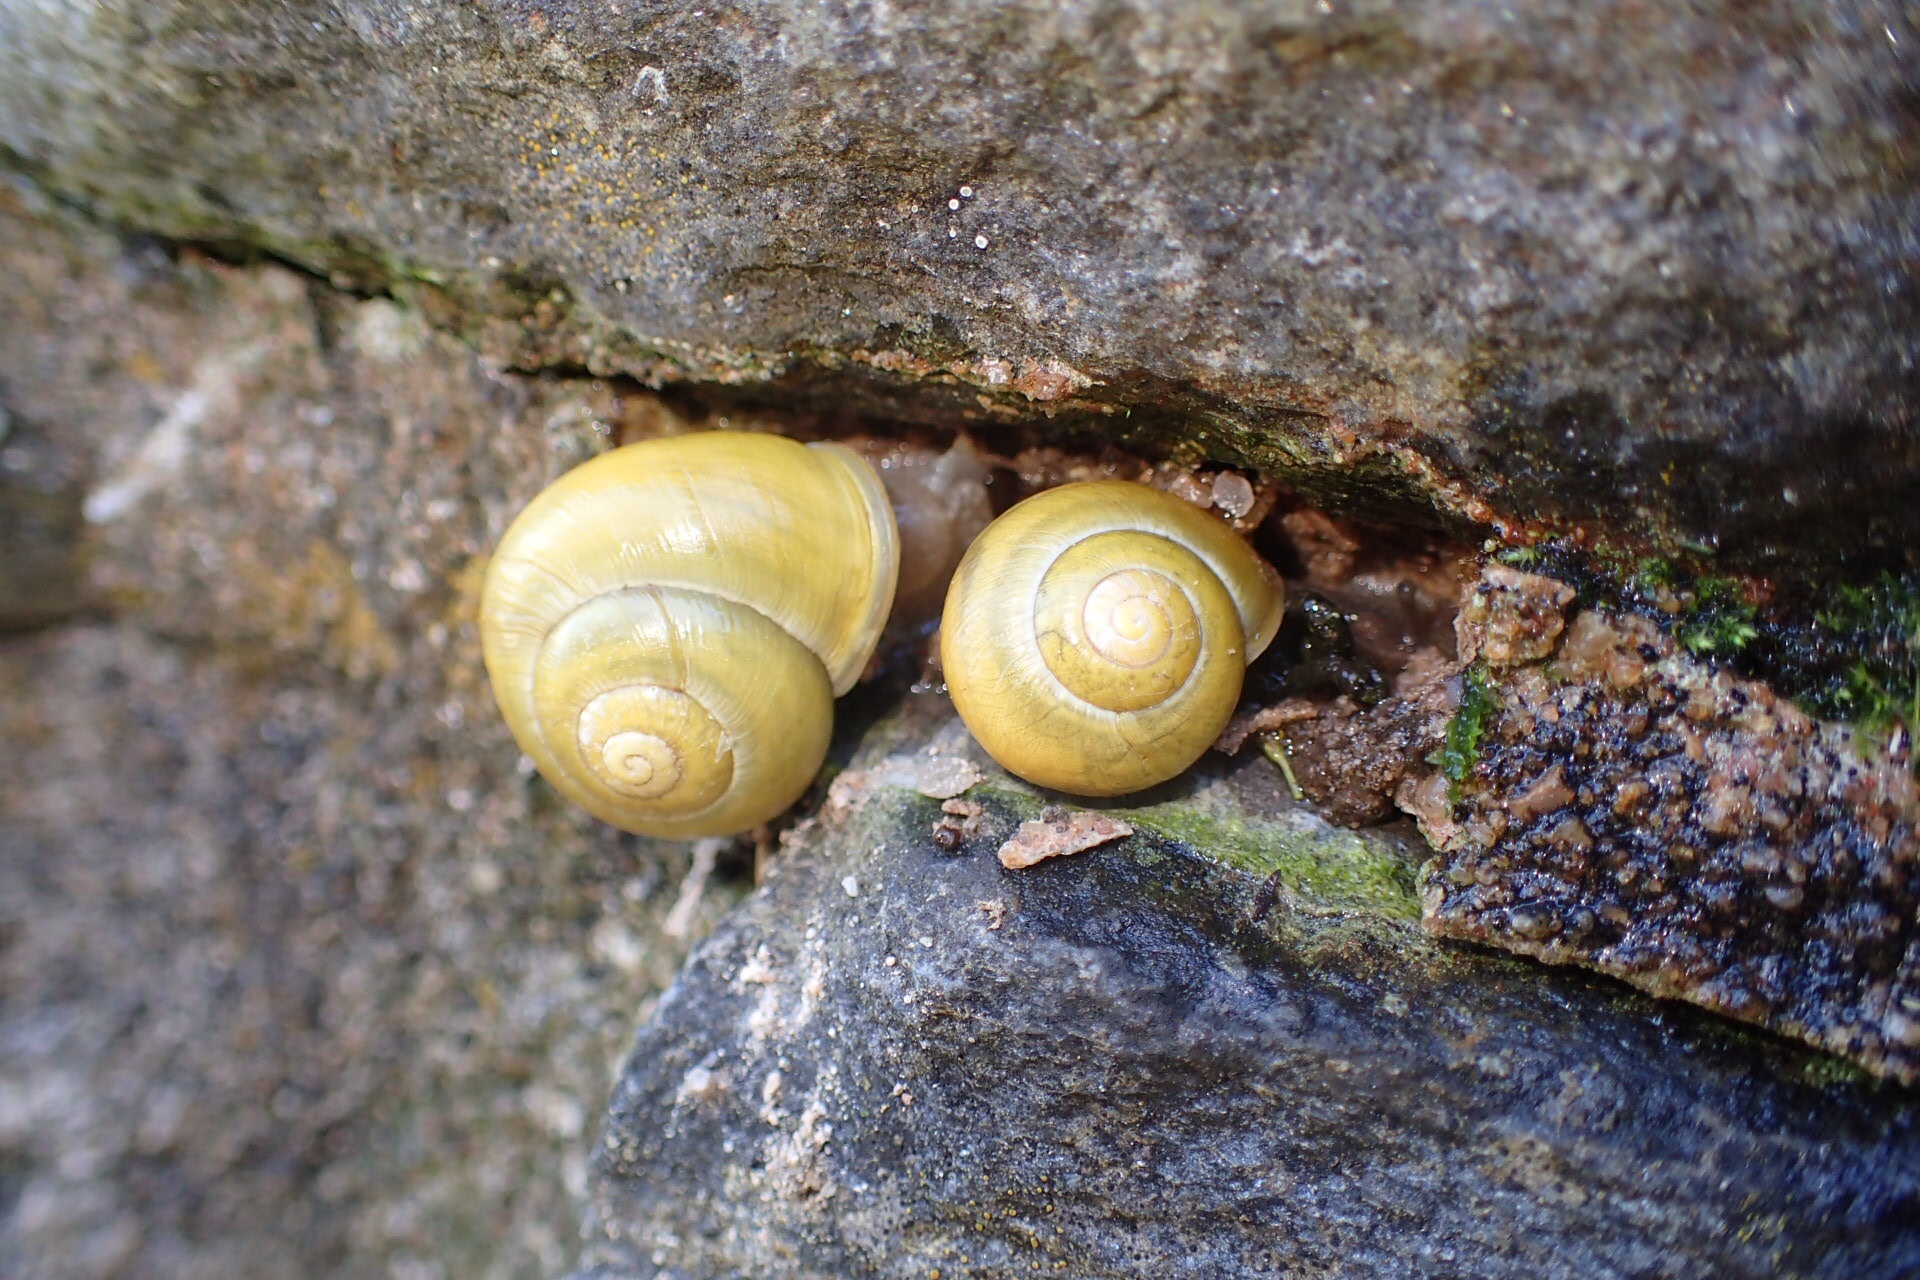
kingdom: Animalia
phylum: Mollusca
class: Gastropoda
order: Stylommatophora
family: Helicidae
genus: Cepaea
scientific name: Cepaea hortensis
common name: White-lip gardensnail
